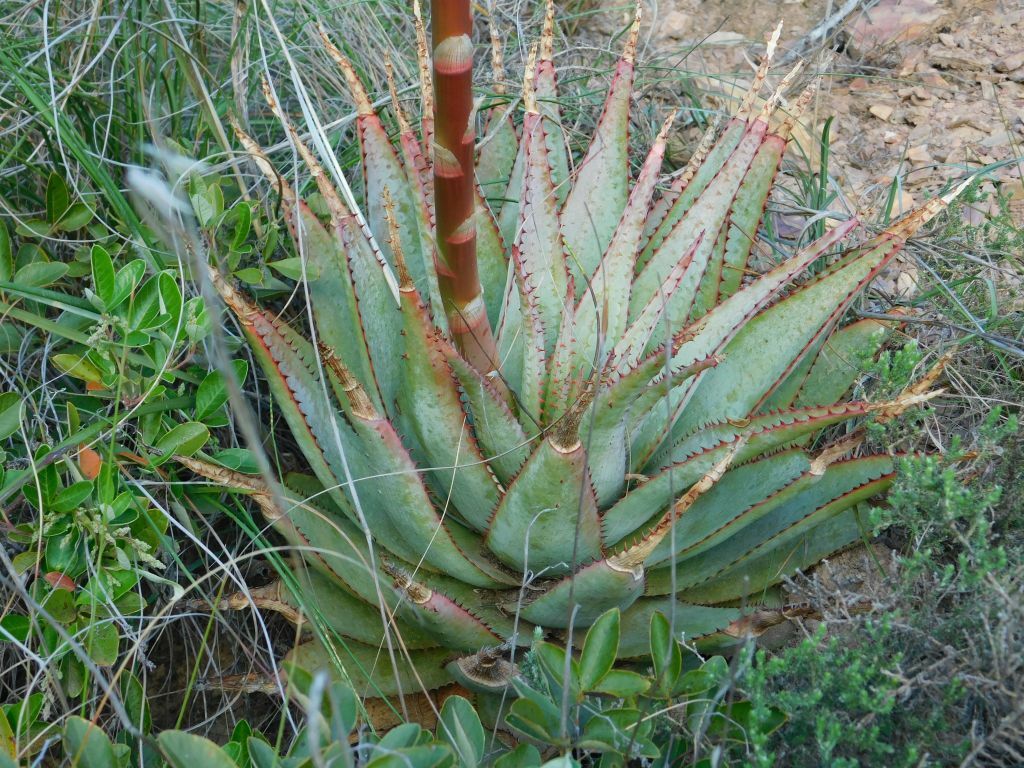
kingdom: Plantae
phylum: Tracheophyta
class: Liliopsida
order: Asparagales
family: Asphodelaceae
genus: Aloe
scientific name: Aloe glauca
